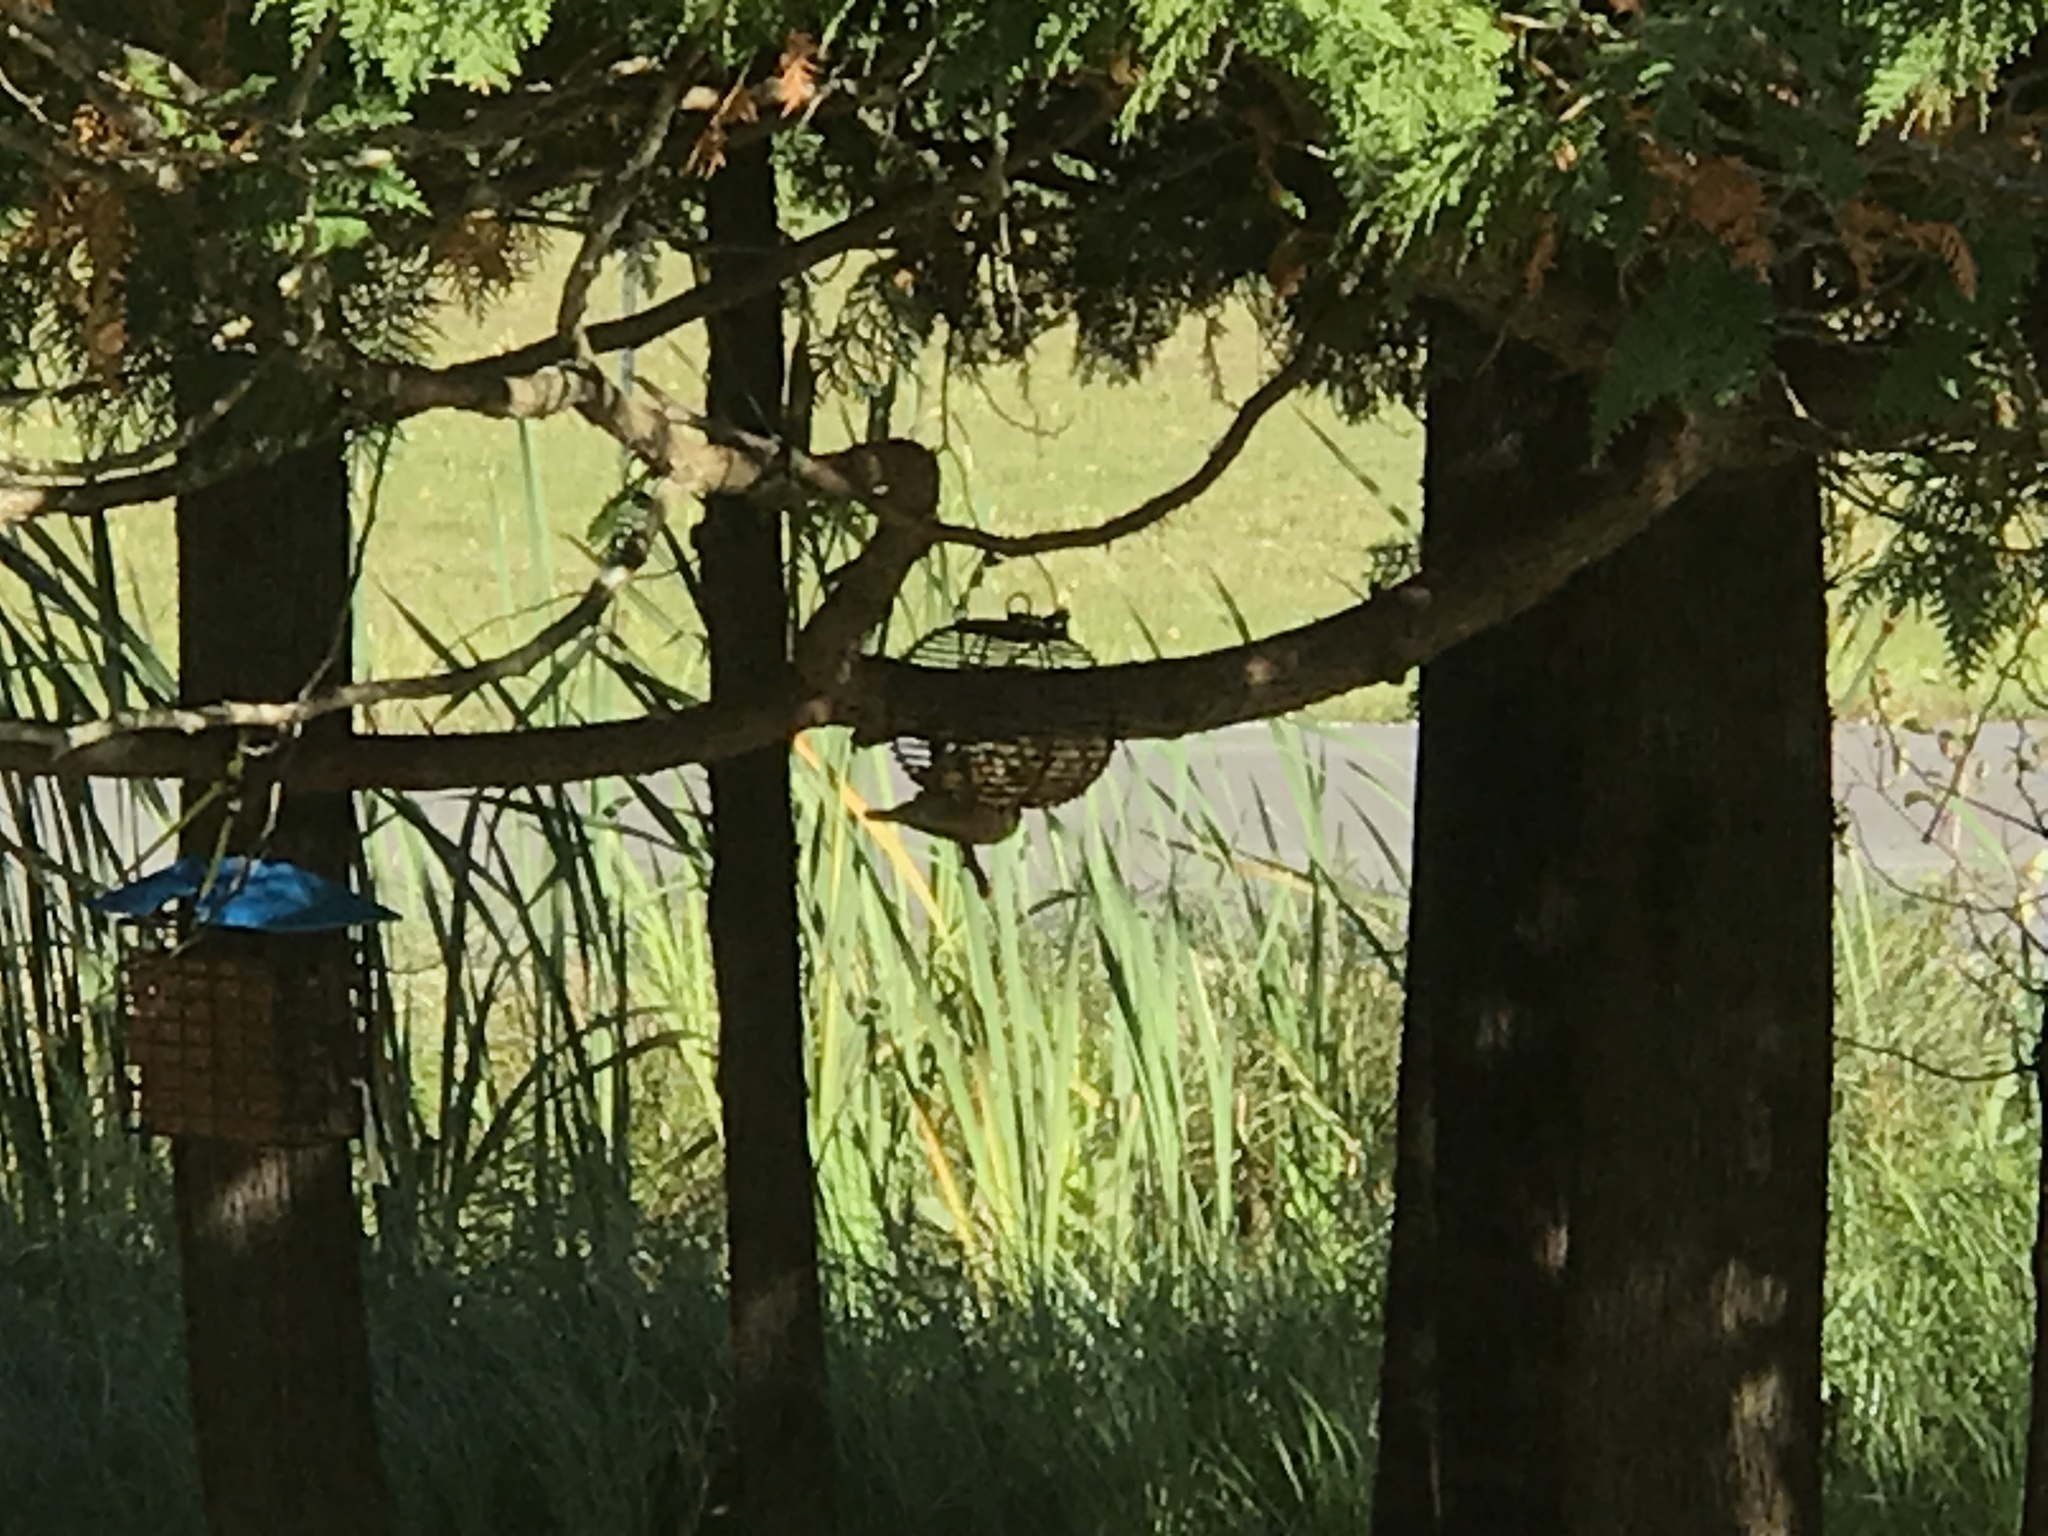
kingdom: Animalia
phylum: Chordata
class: Aves
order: Passeriformes
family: Sittidae
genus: Sitta
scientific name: Sitta canadensis
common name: Red-breasted nuthatch
